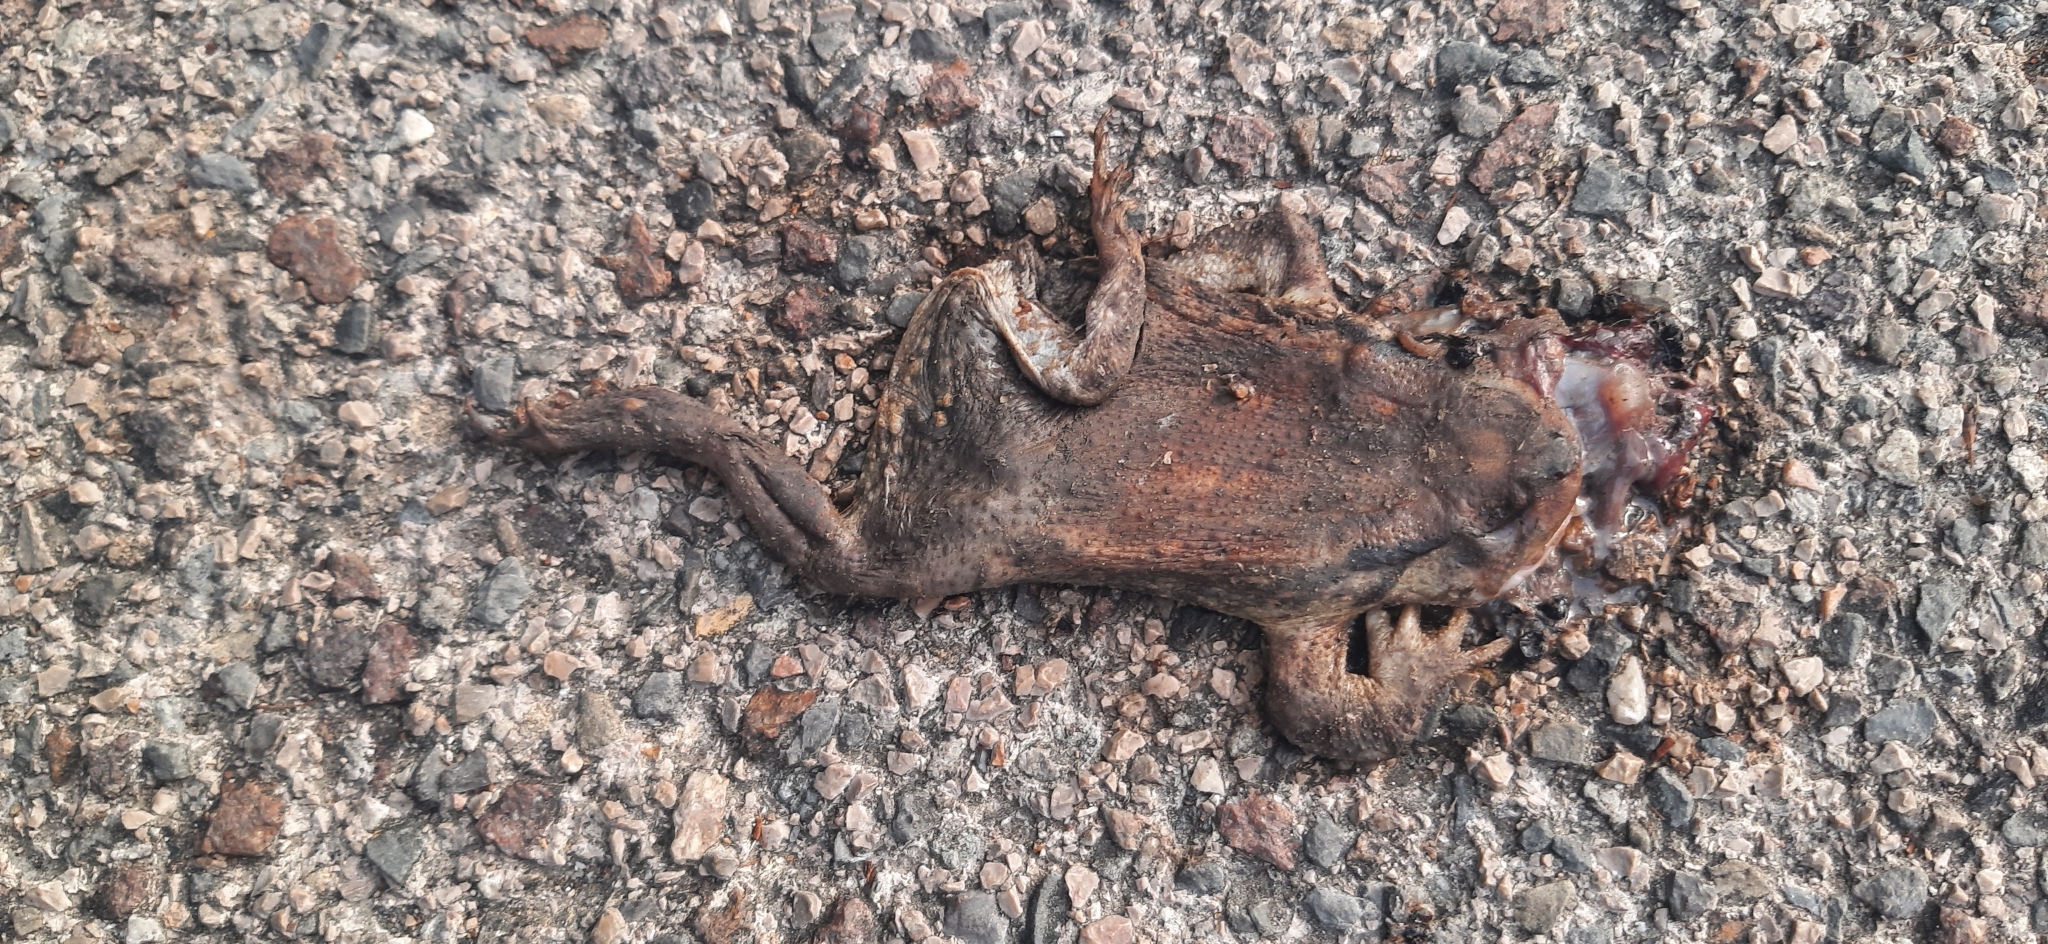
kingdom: Animalia
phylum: Chordata
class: Amphibia
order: Anura
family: Bufonidae
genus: Bufo
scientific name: Bufo
